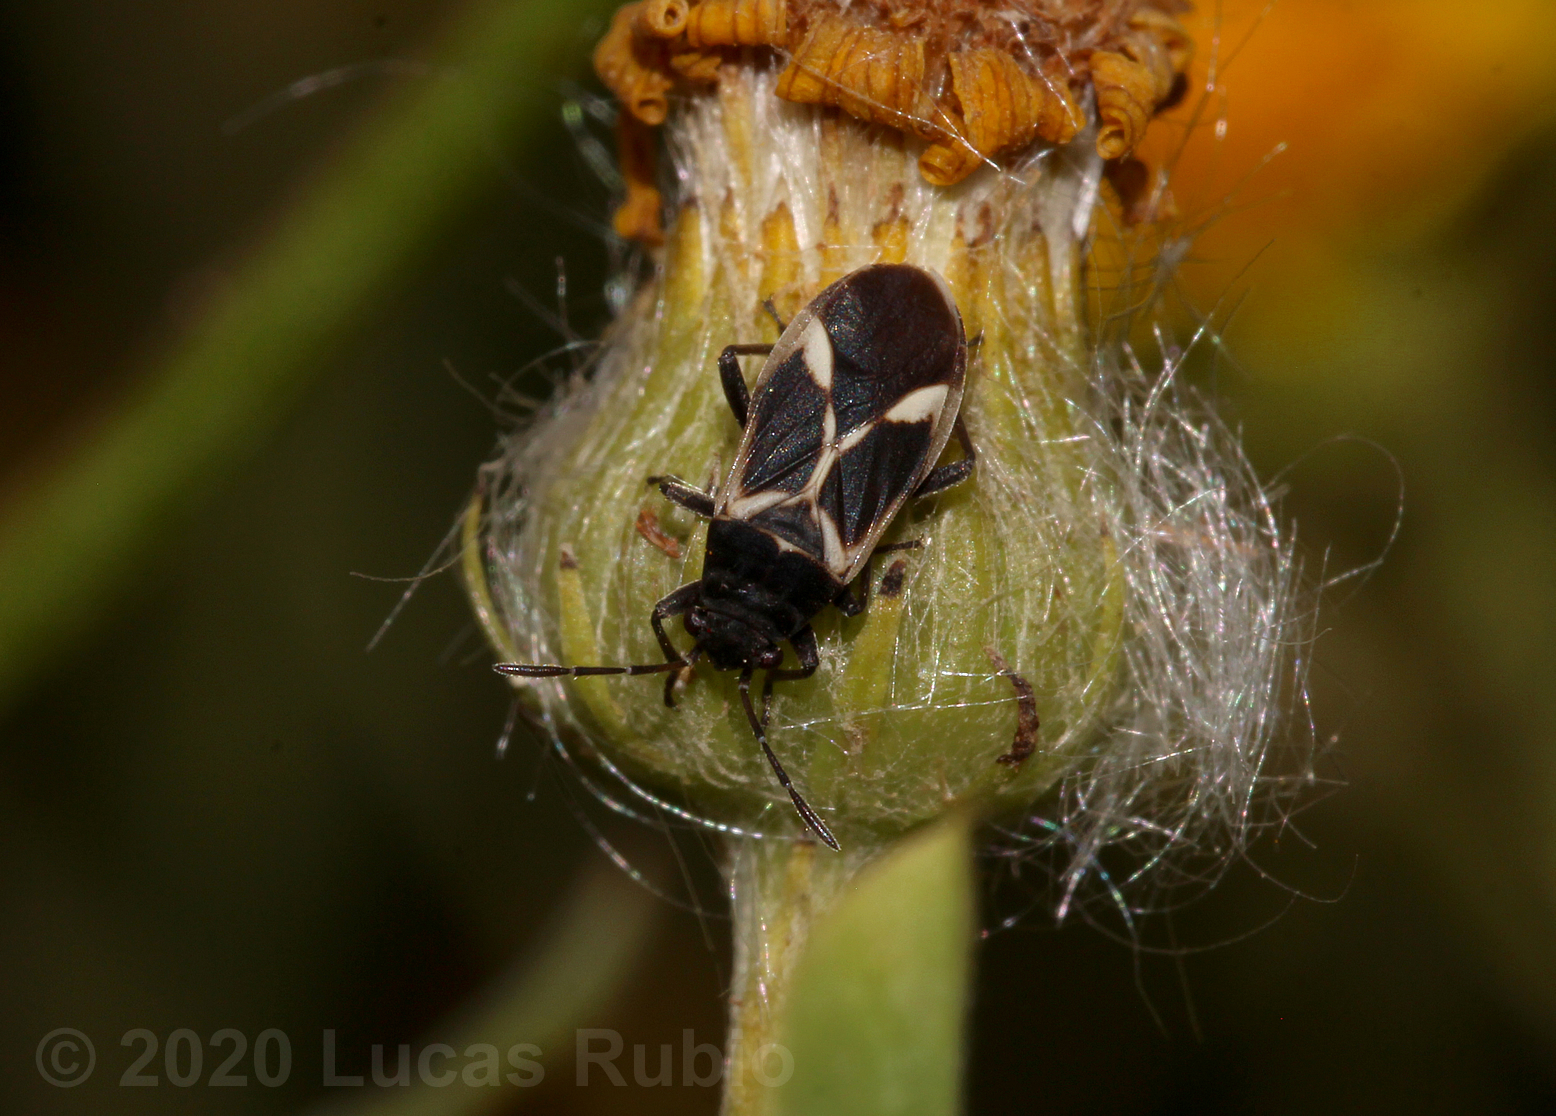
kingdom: Animalia
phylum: Arthropoda
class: Insecta
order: Hemiptera
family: Lygaeidae
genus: Ochrimnus
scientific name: Ochrimnus cinctipennis
